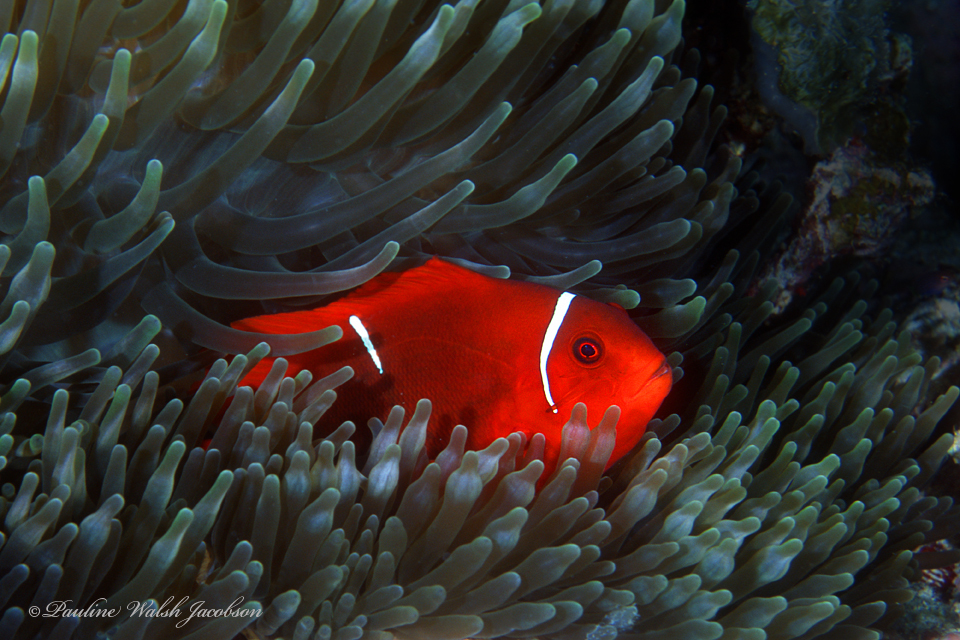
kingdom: Animalia
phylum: Chordata
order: Perciformes
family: Pomacentridae
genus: Premnas
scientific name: Premnas biaculeatus
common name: Spinecheek anemonefish
